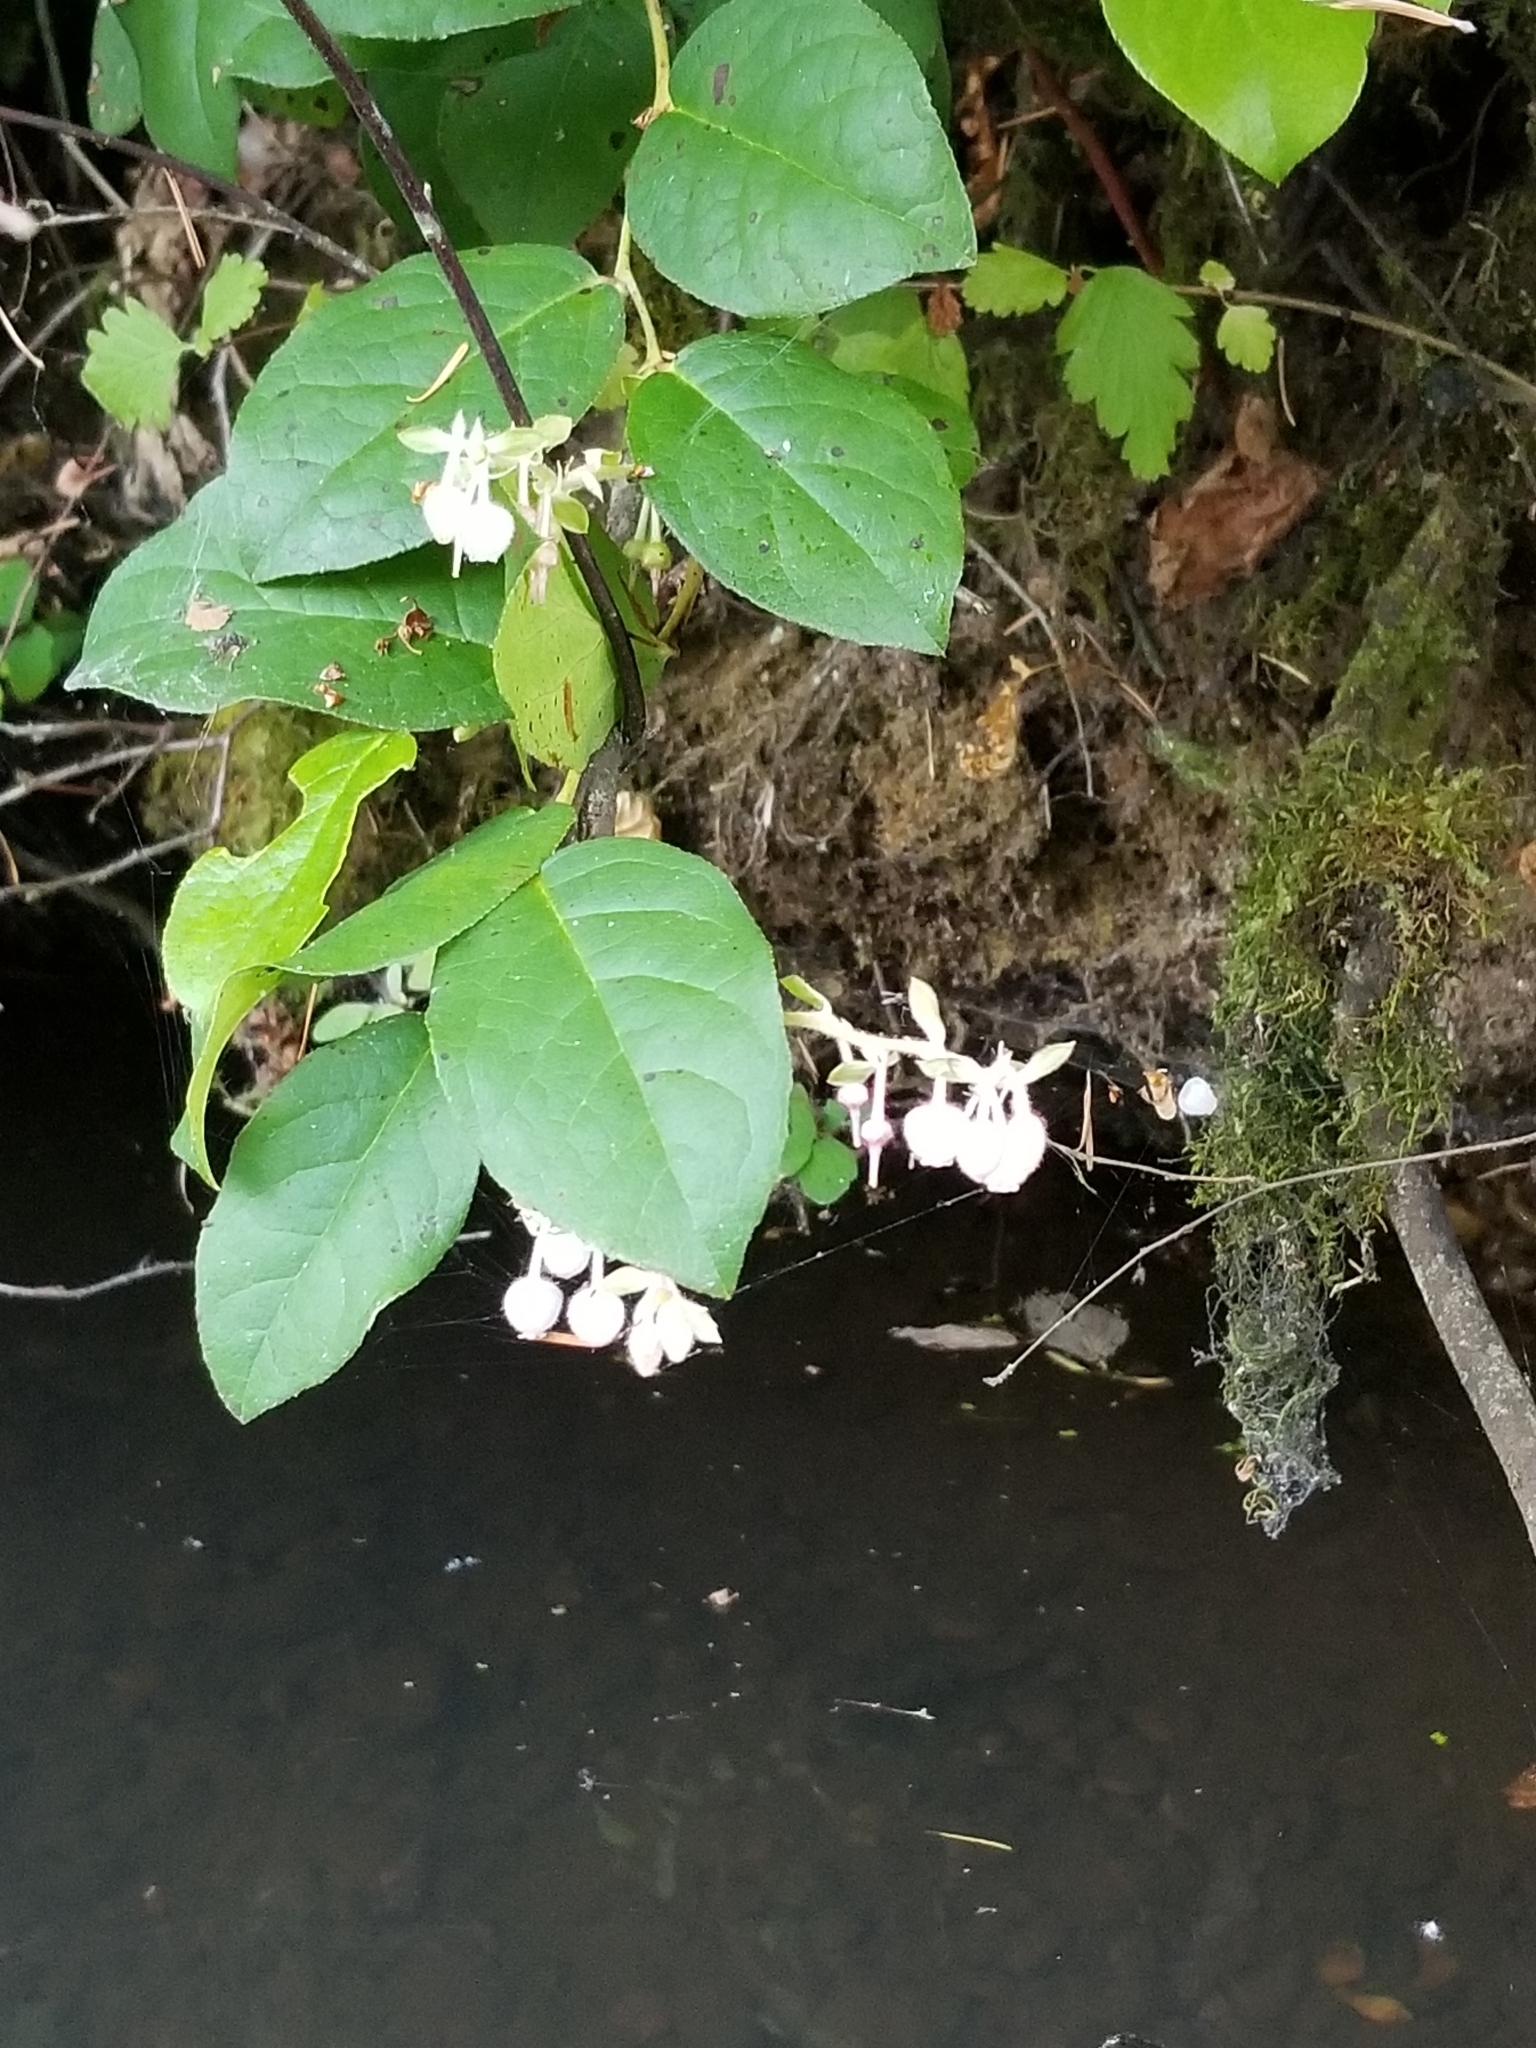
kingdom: Plantae
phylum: Tracheophyta
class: Magnoliopsida
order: Ericales
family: Ericaceae
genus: Gaultheria
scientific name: Gaultheria shallon
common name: Shallon
